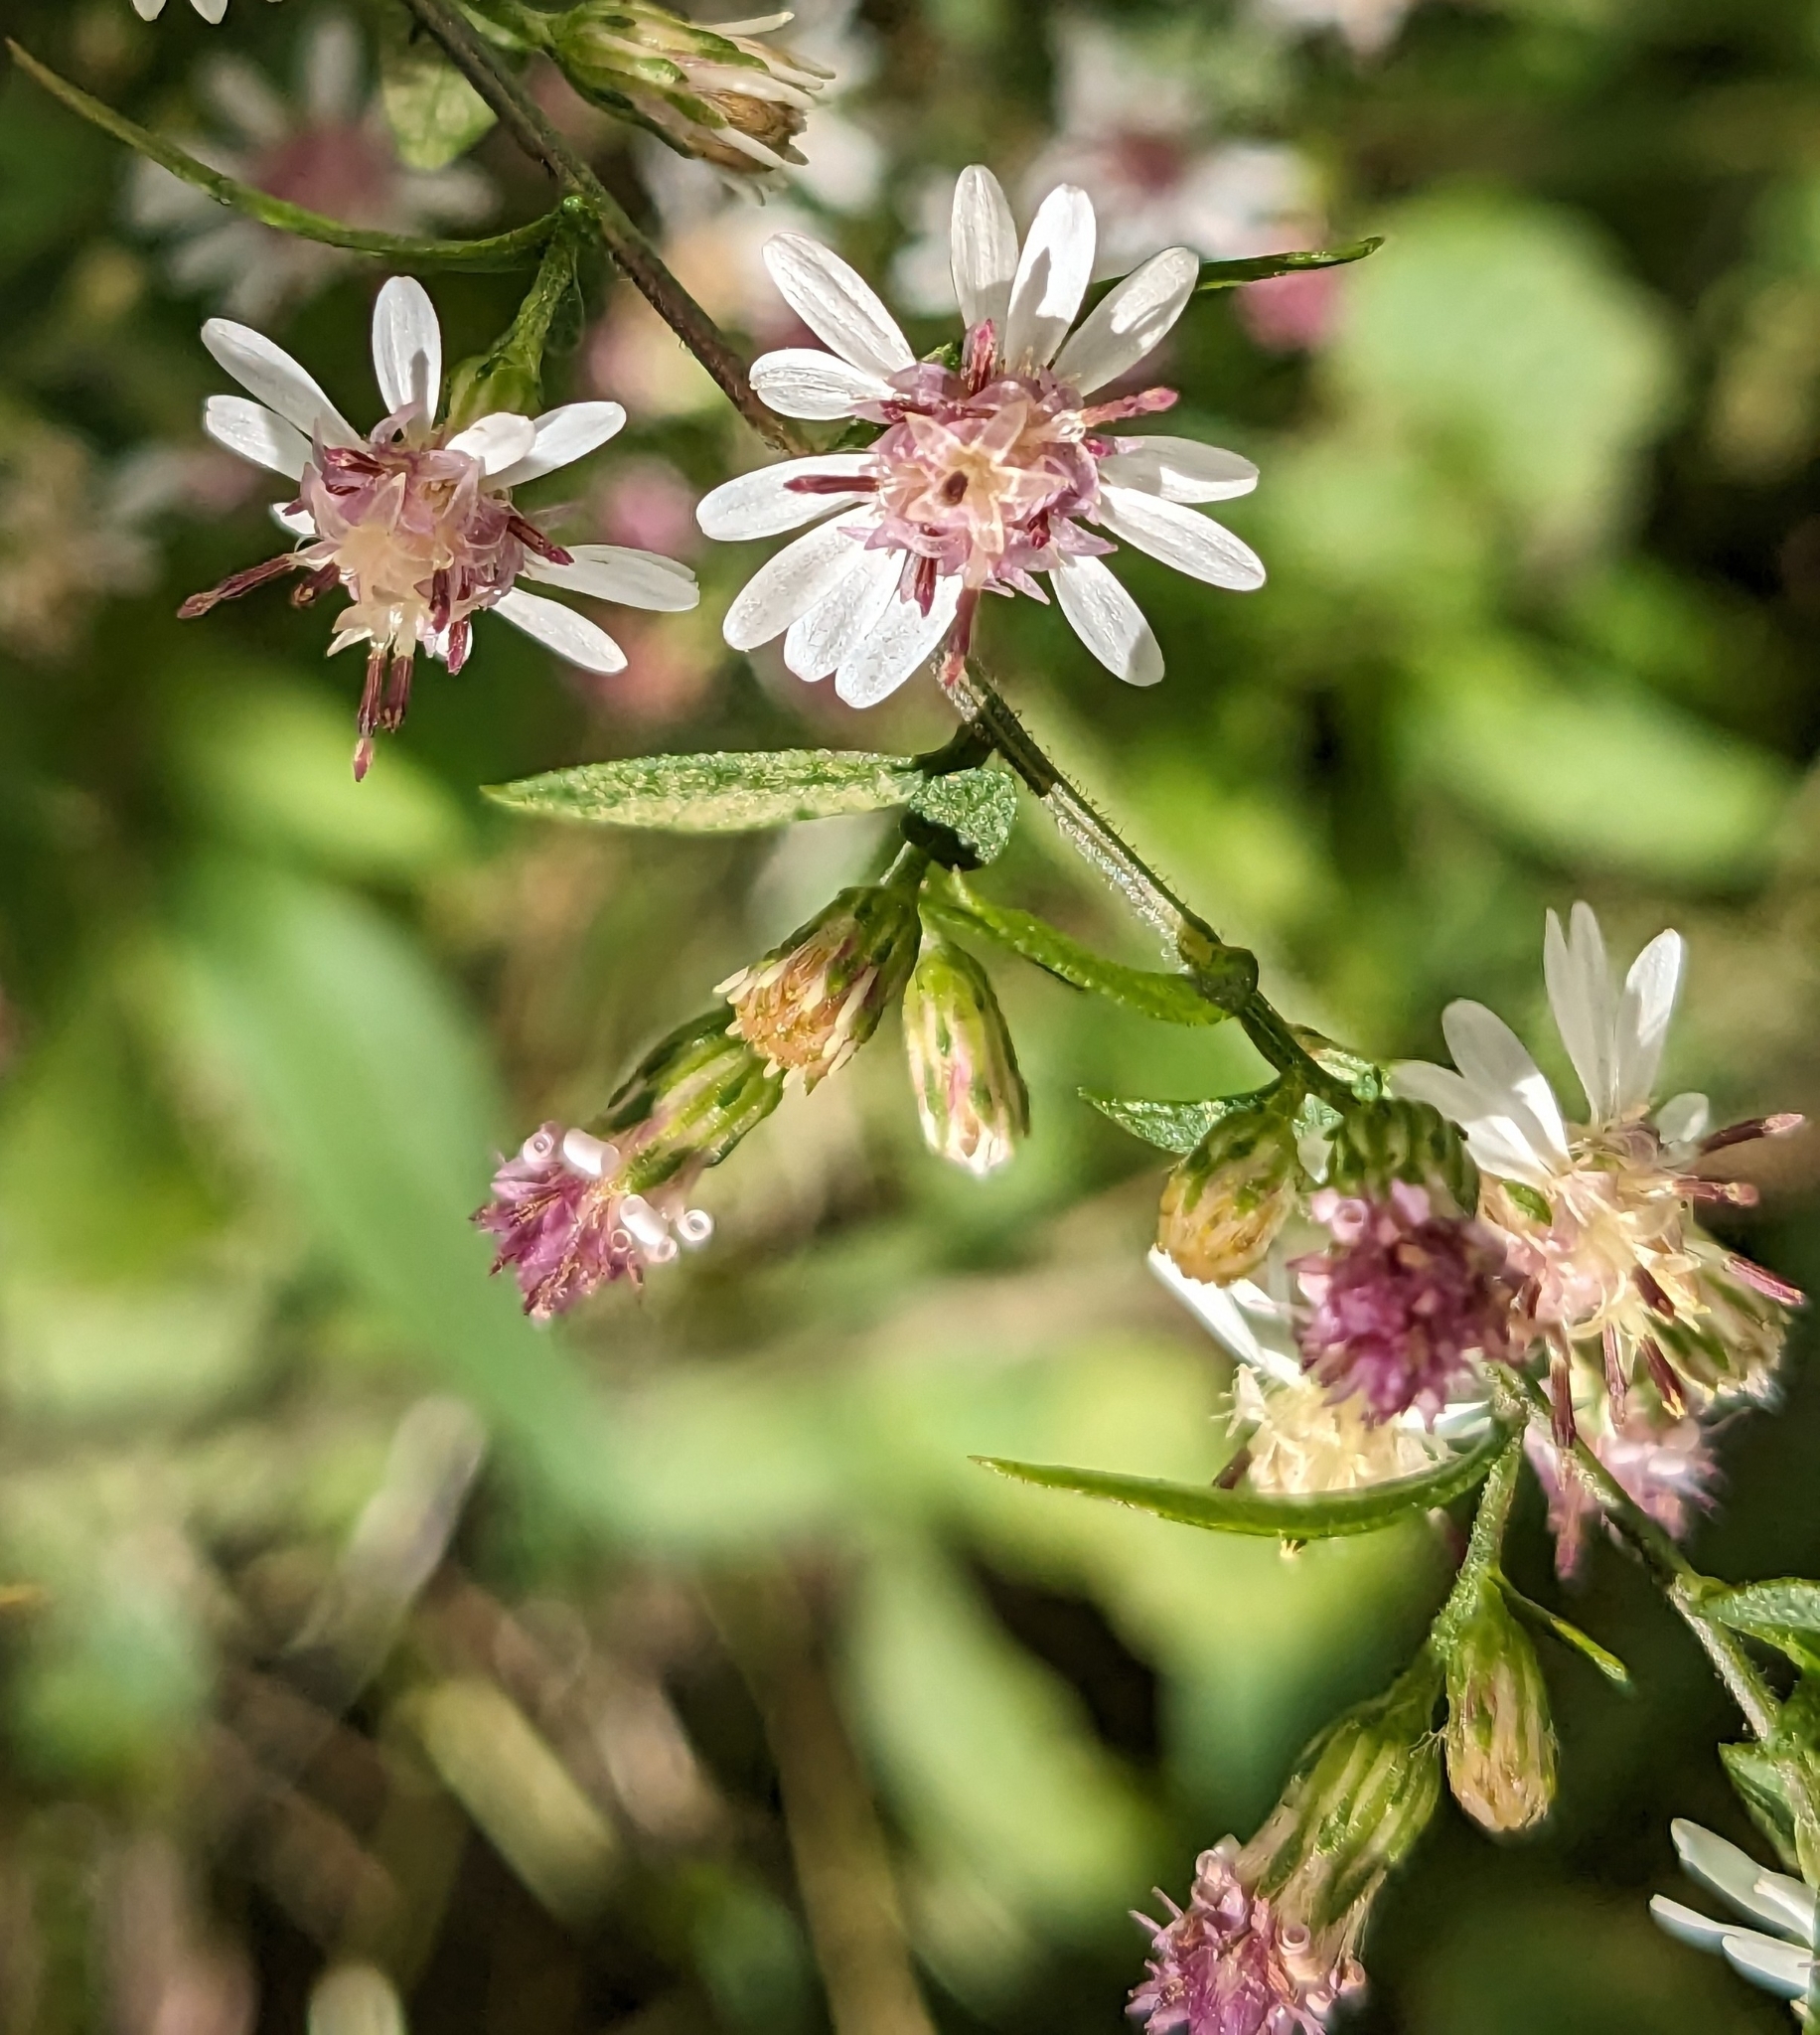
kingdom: Plantae
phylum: Tracheophyta
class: Magnoliopsida
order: Asterales
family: Asteraceae
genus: Symphyotrichum
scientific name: Symphyotrichum lateriflorum
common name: Calico aster
